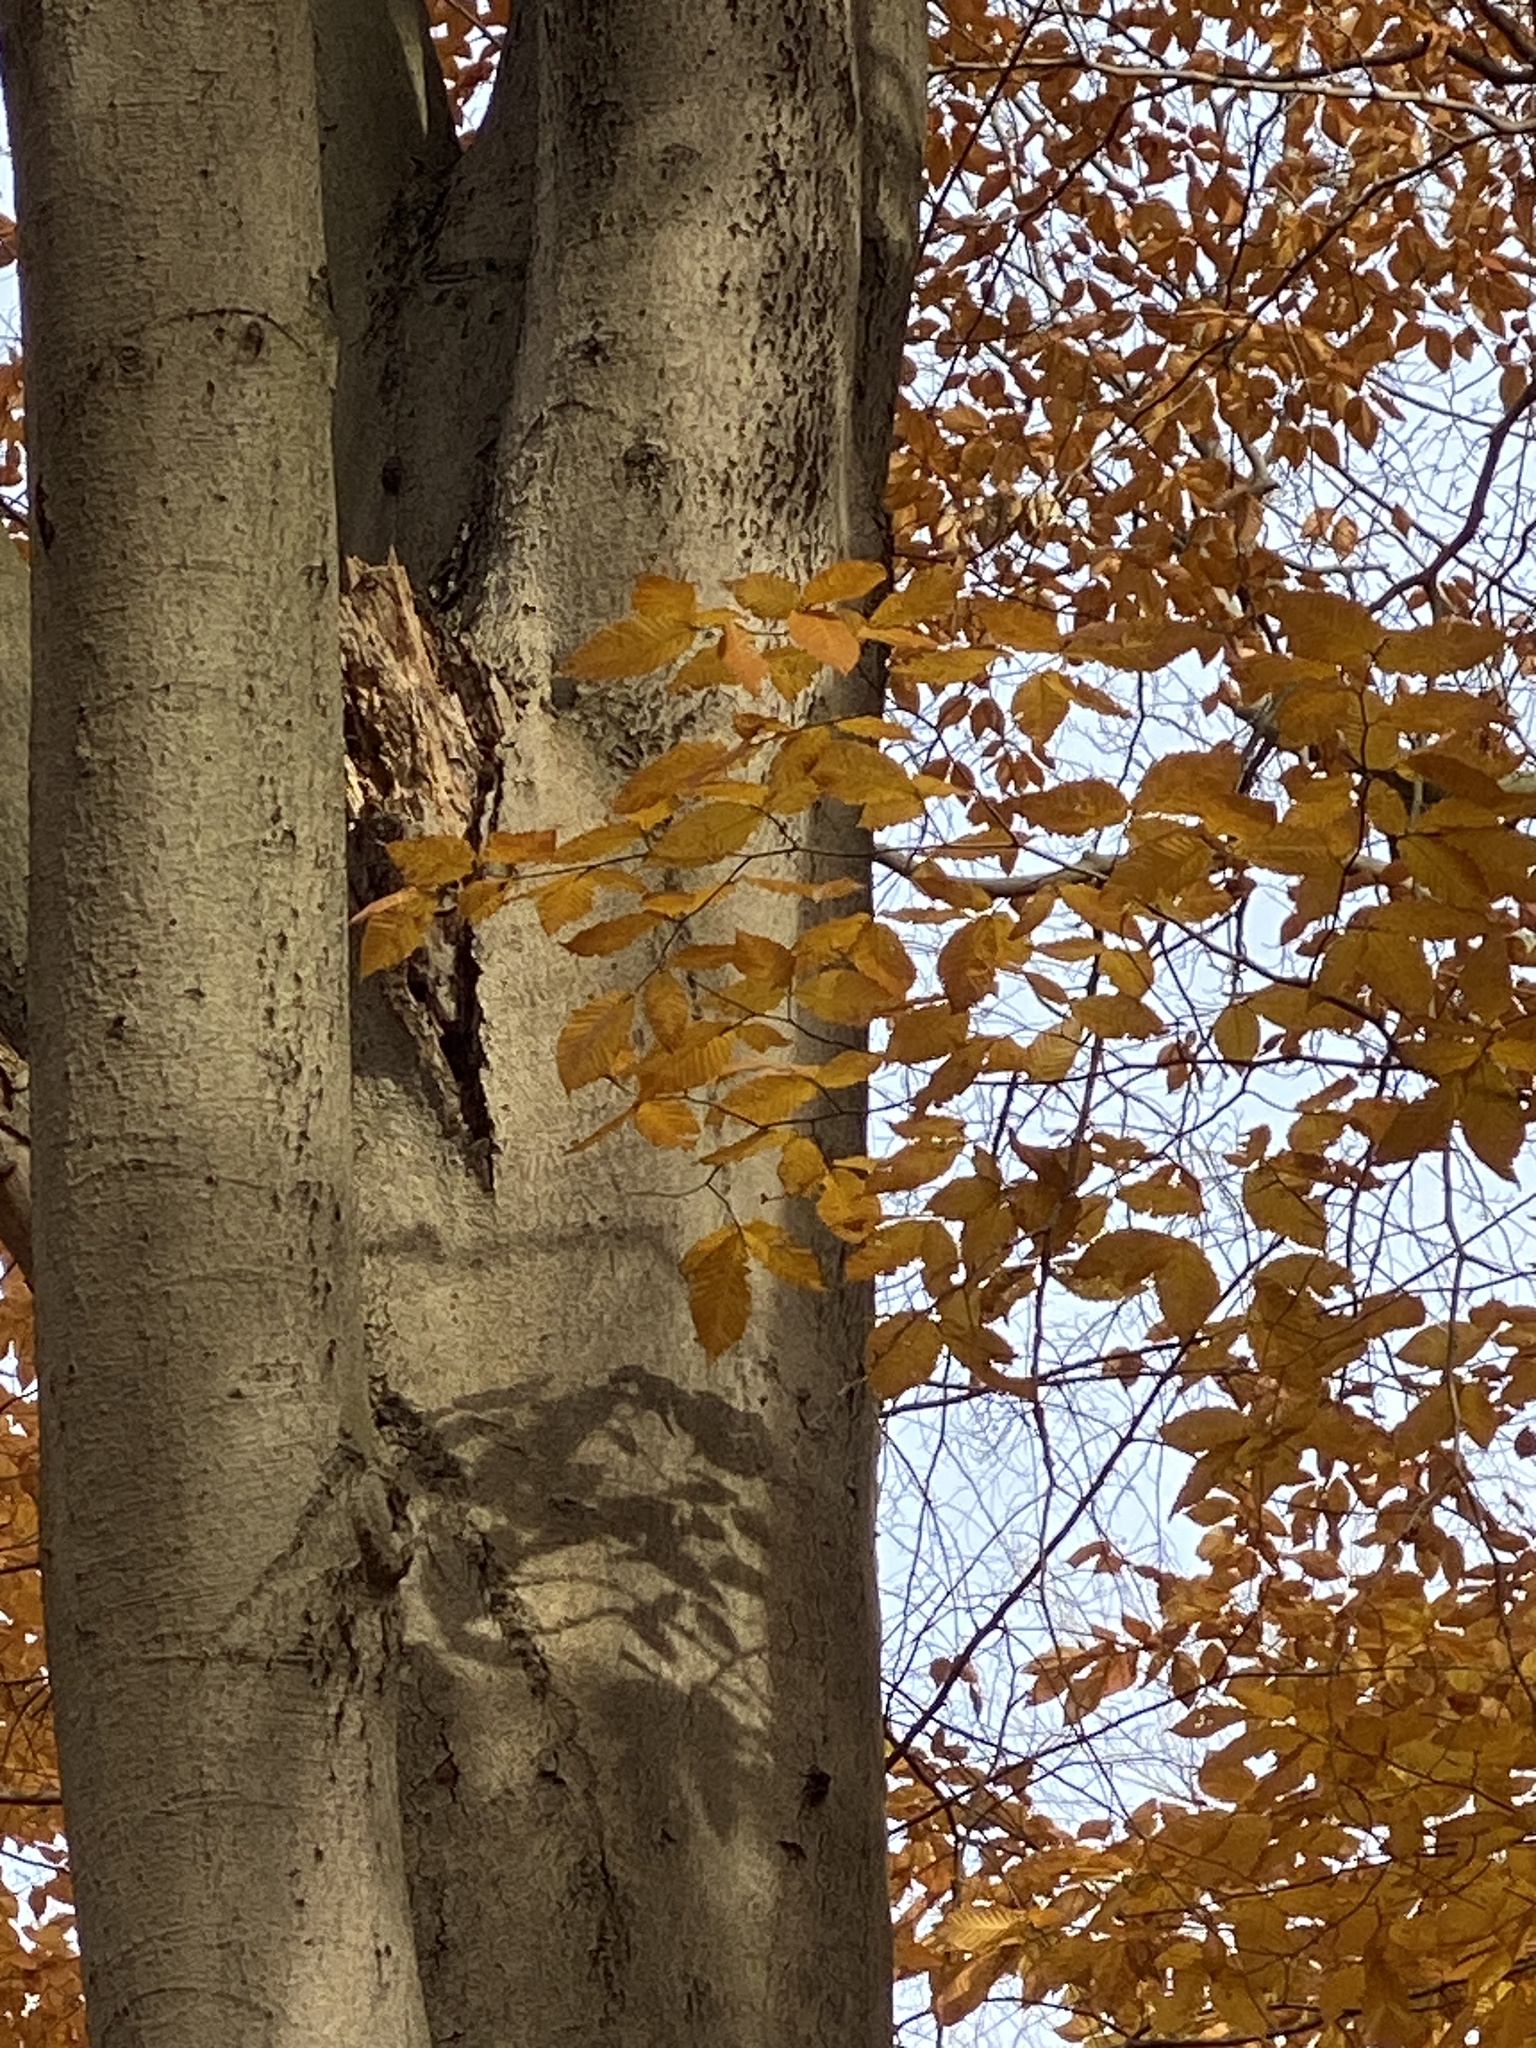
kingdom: Plantae
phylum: Tracheophyta
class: Magnoliopsida
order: Fagales
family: Fagaceae
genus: Fagus
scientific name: Fagus grandifolia
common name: American beech
